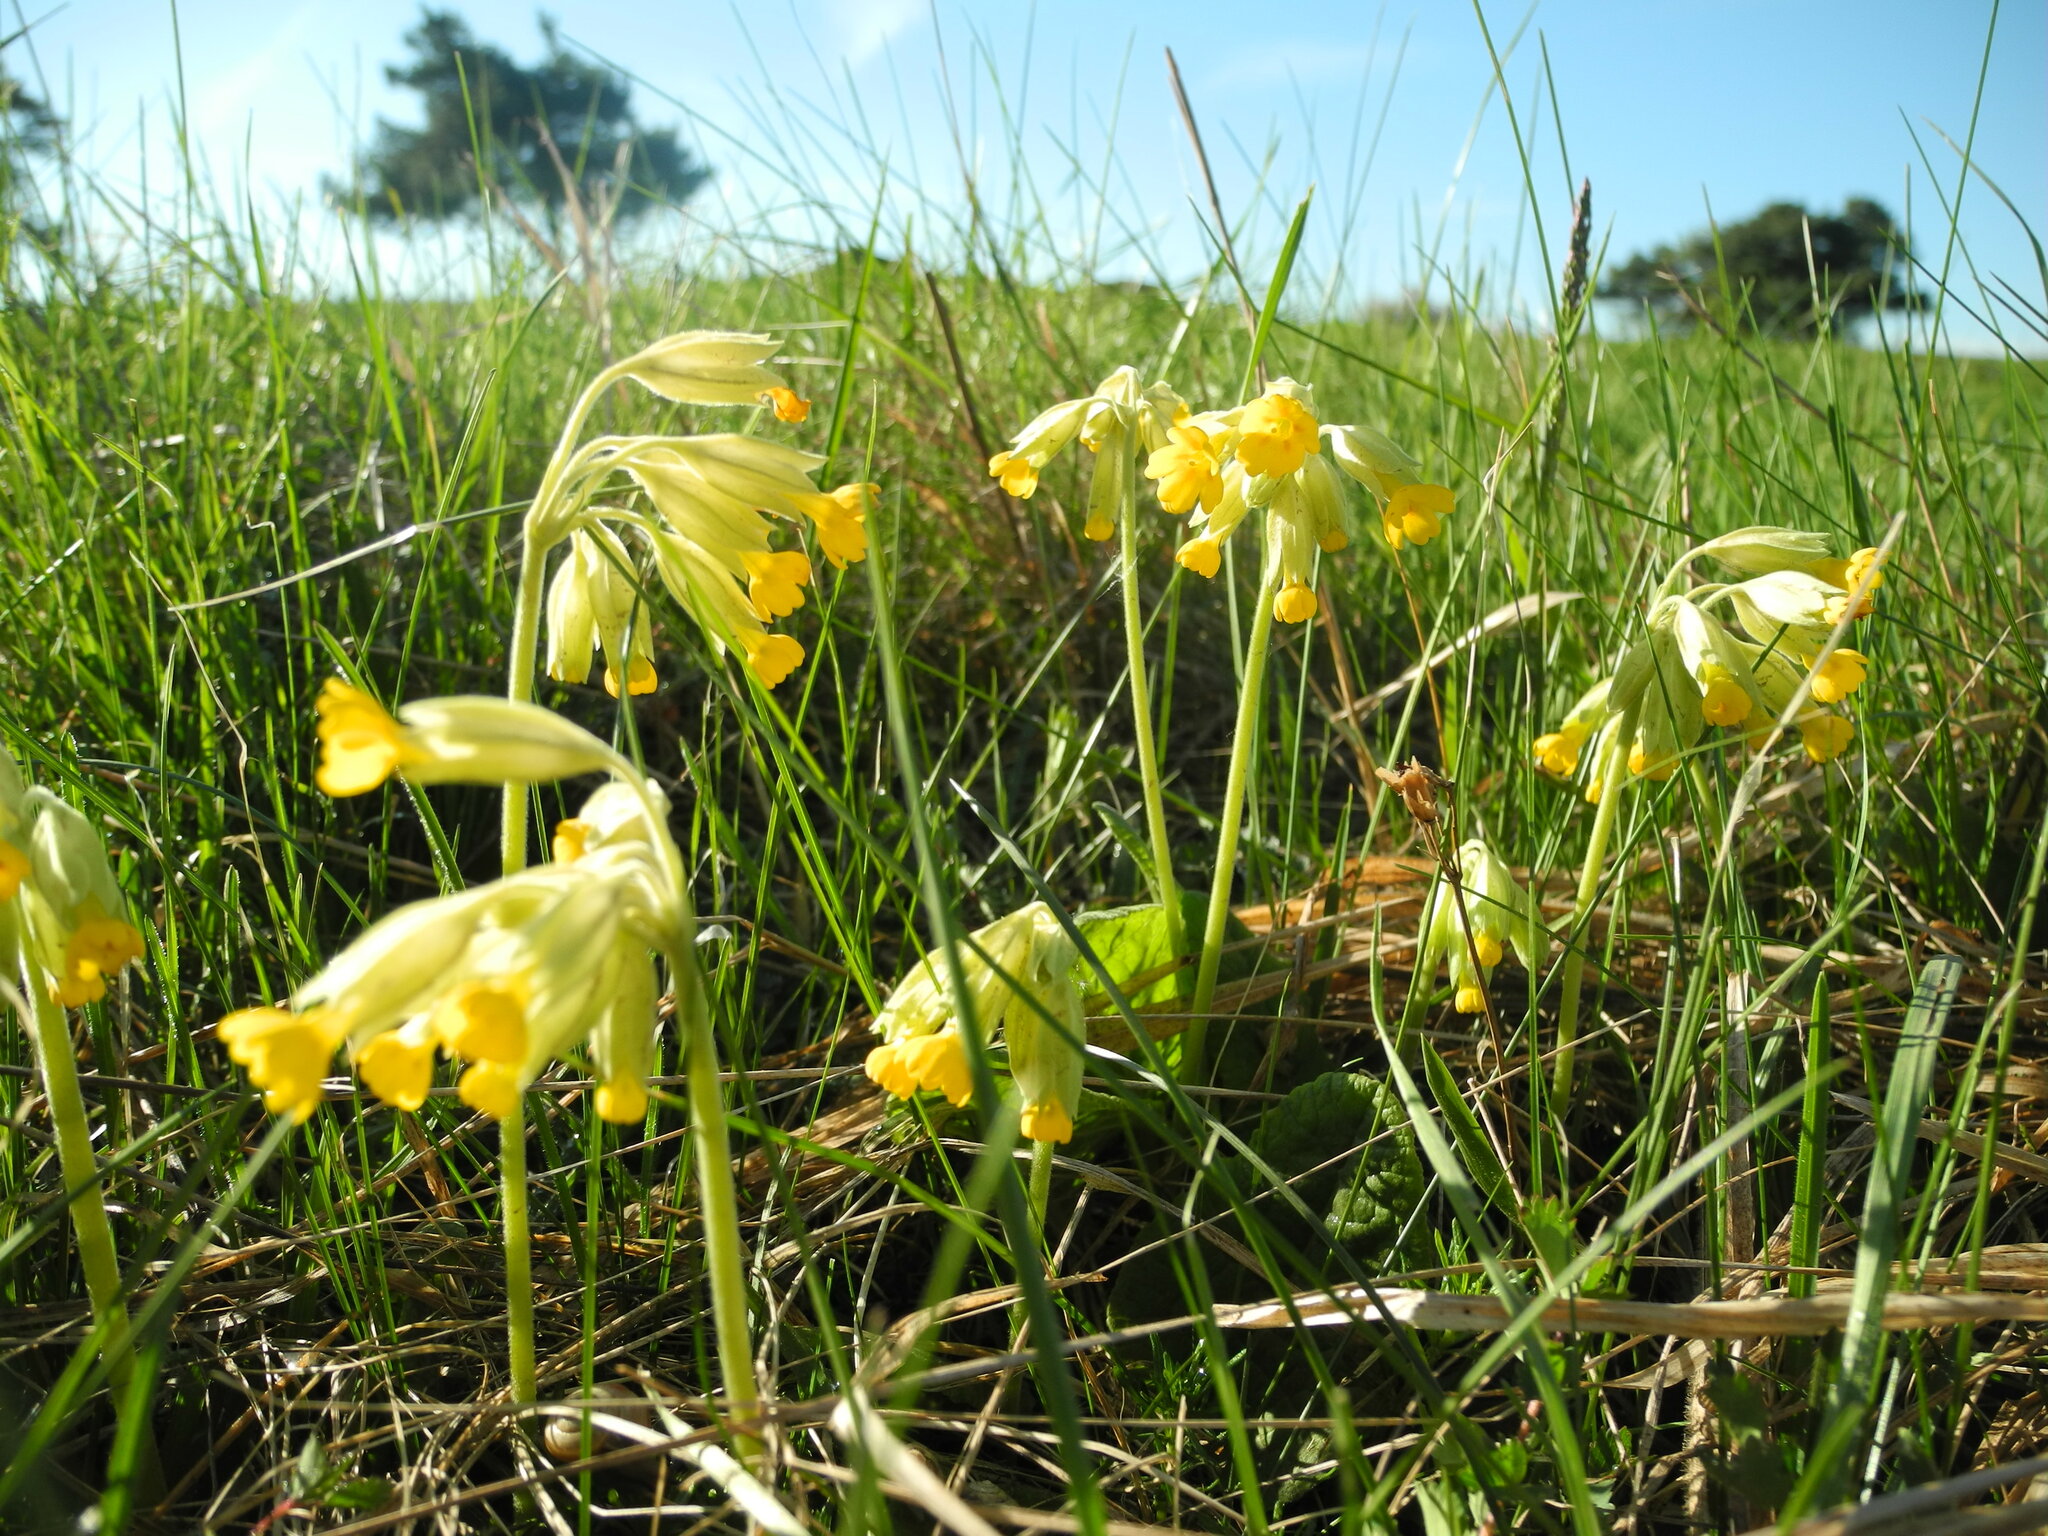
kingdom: Plantae
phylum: Tracheophyta
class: Magnoliopsida
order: Ericales
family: Primulaceae
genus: Primula
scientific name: Primula veris
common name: Cowslip
